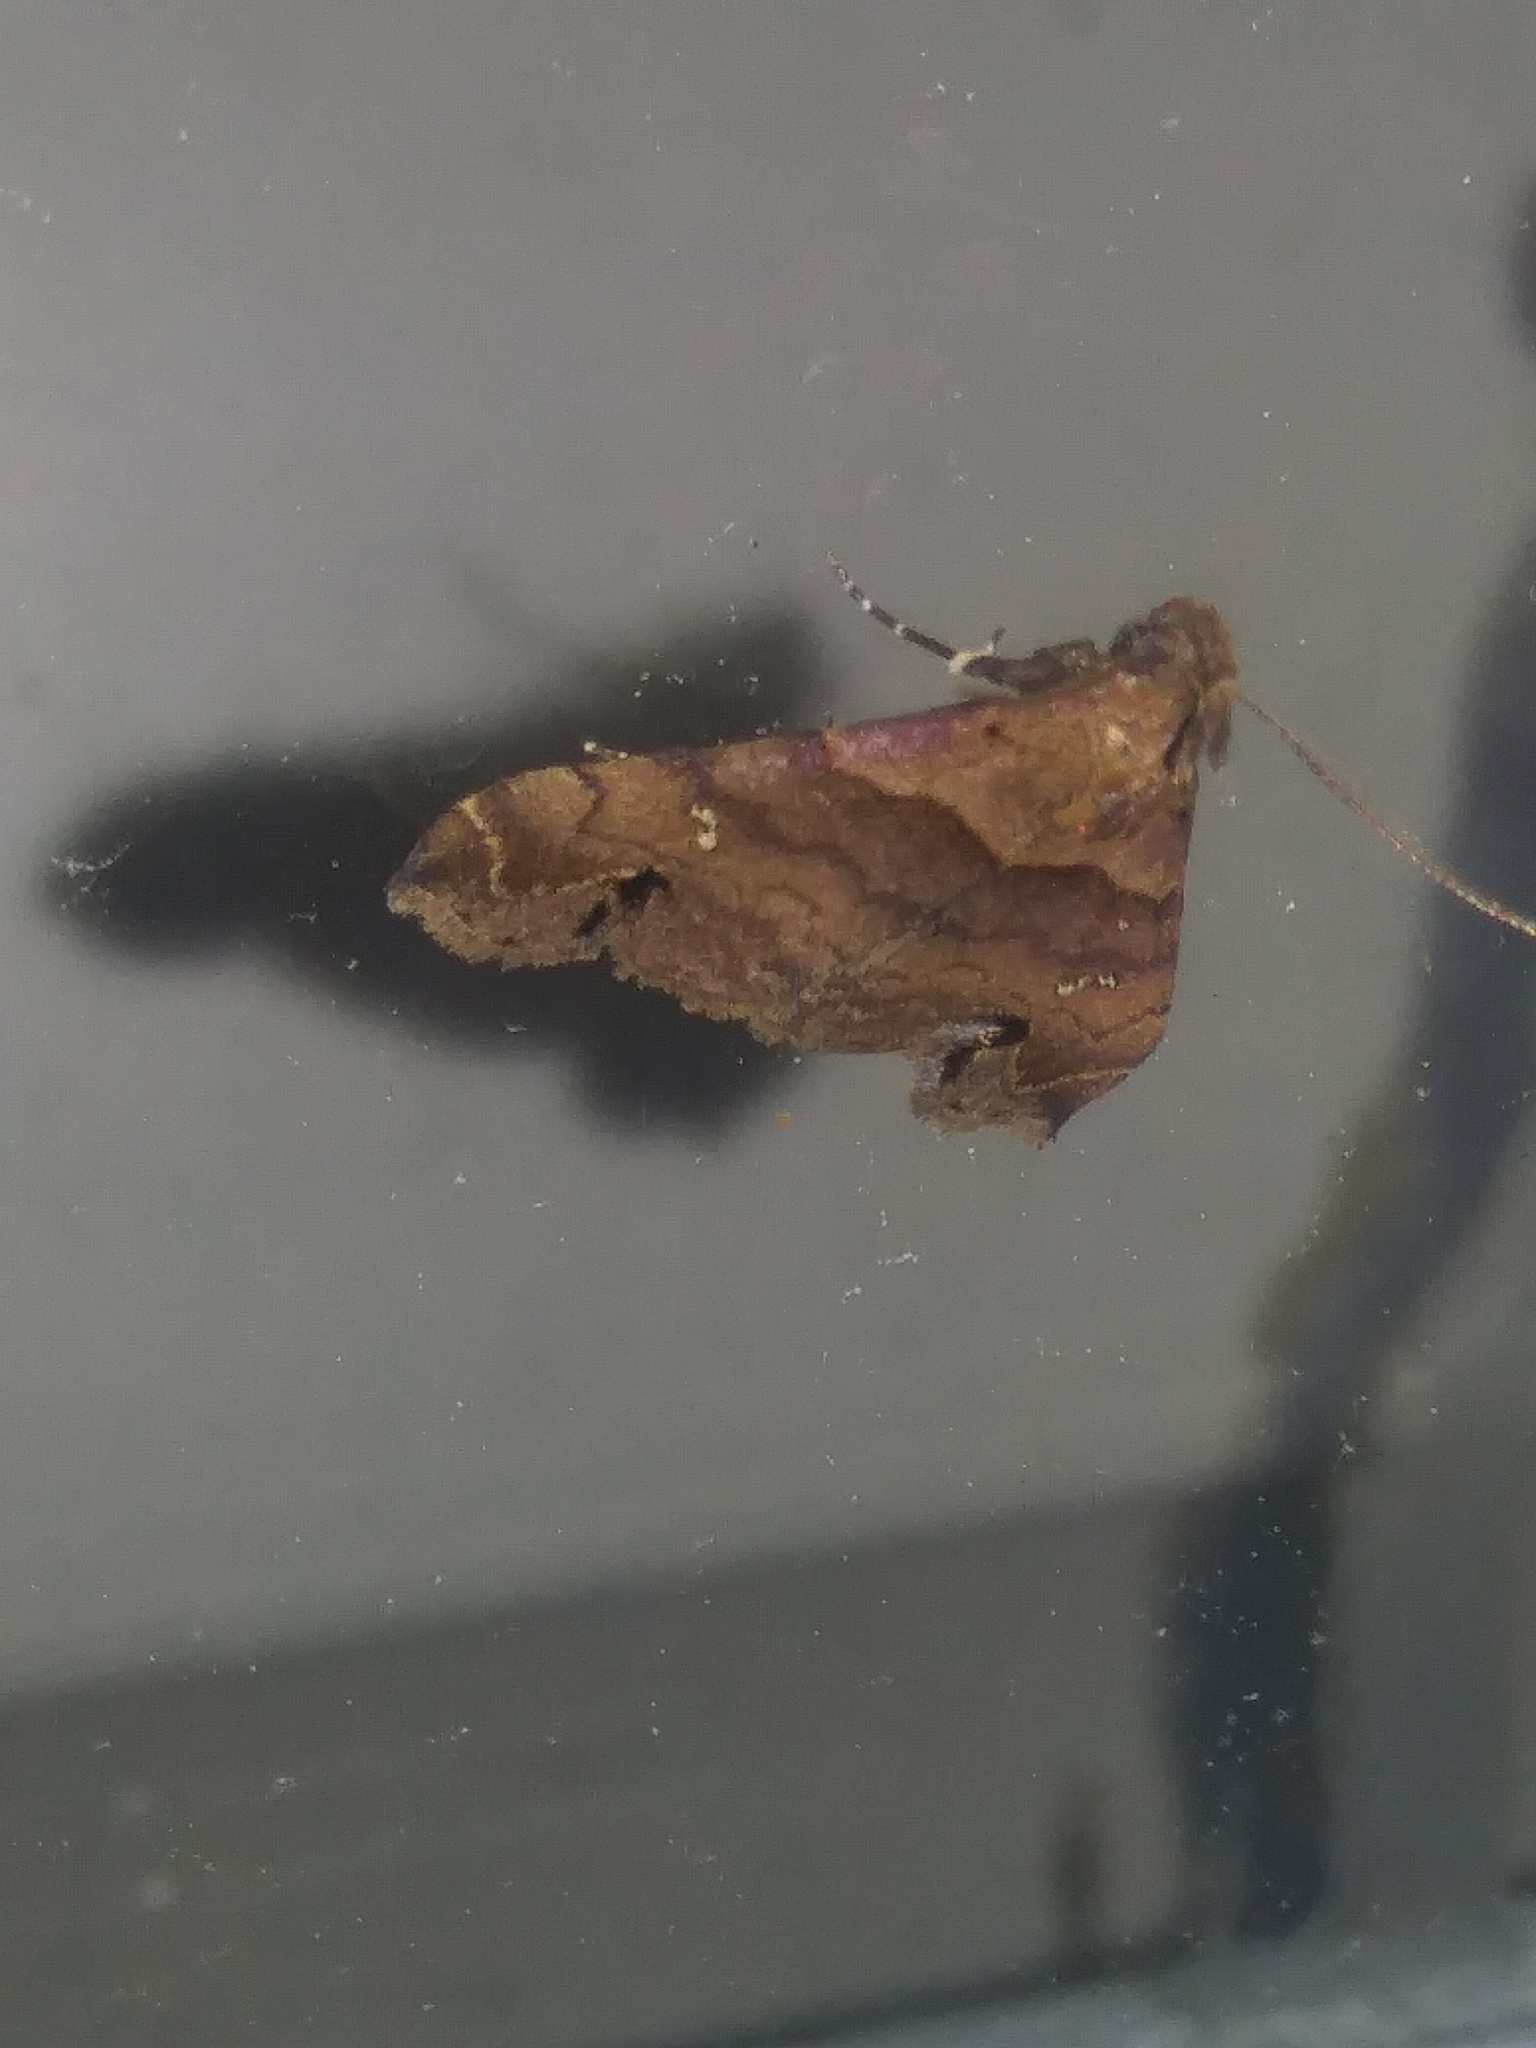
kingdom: Animalia
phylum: Arthropoda
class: Insecta
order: Lepidoptera
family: Erebidae
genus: Lascoria
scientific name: Lascoria ambigualis
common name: Ambiguous moth
